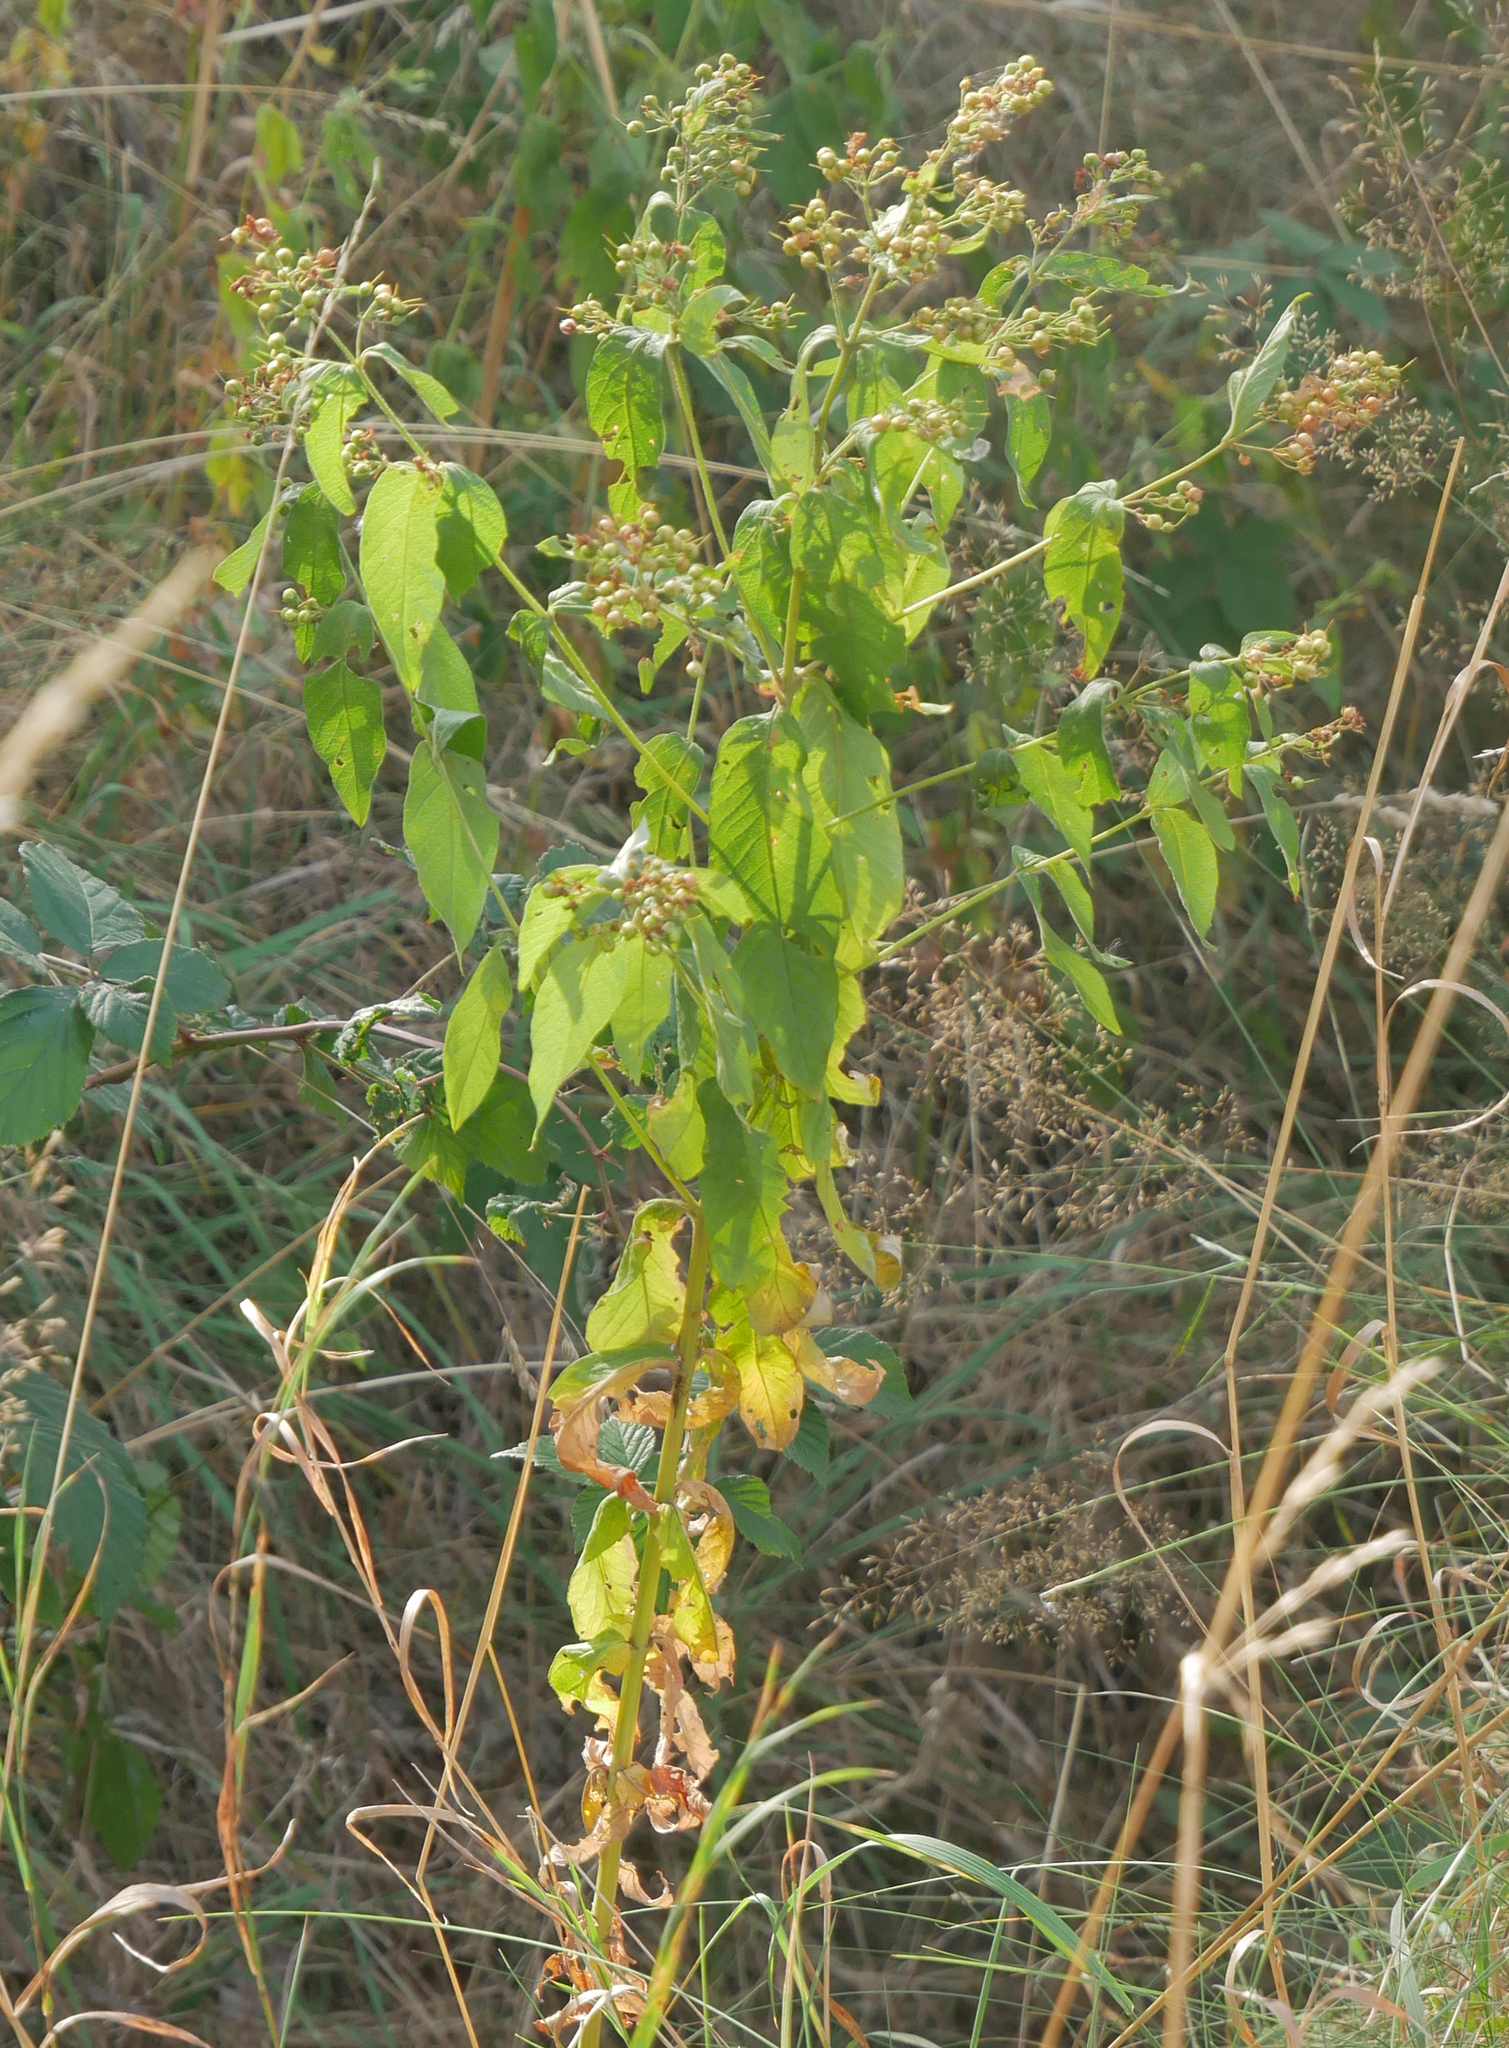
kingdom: Plantae
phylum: Tracheophyta
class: Magnoliopsida
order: Ericales
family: Primulaceae
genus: Lysimachia
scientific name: Lysimachia vulgaris
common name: Yellow loosestrife
